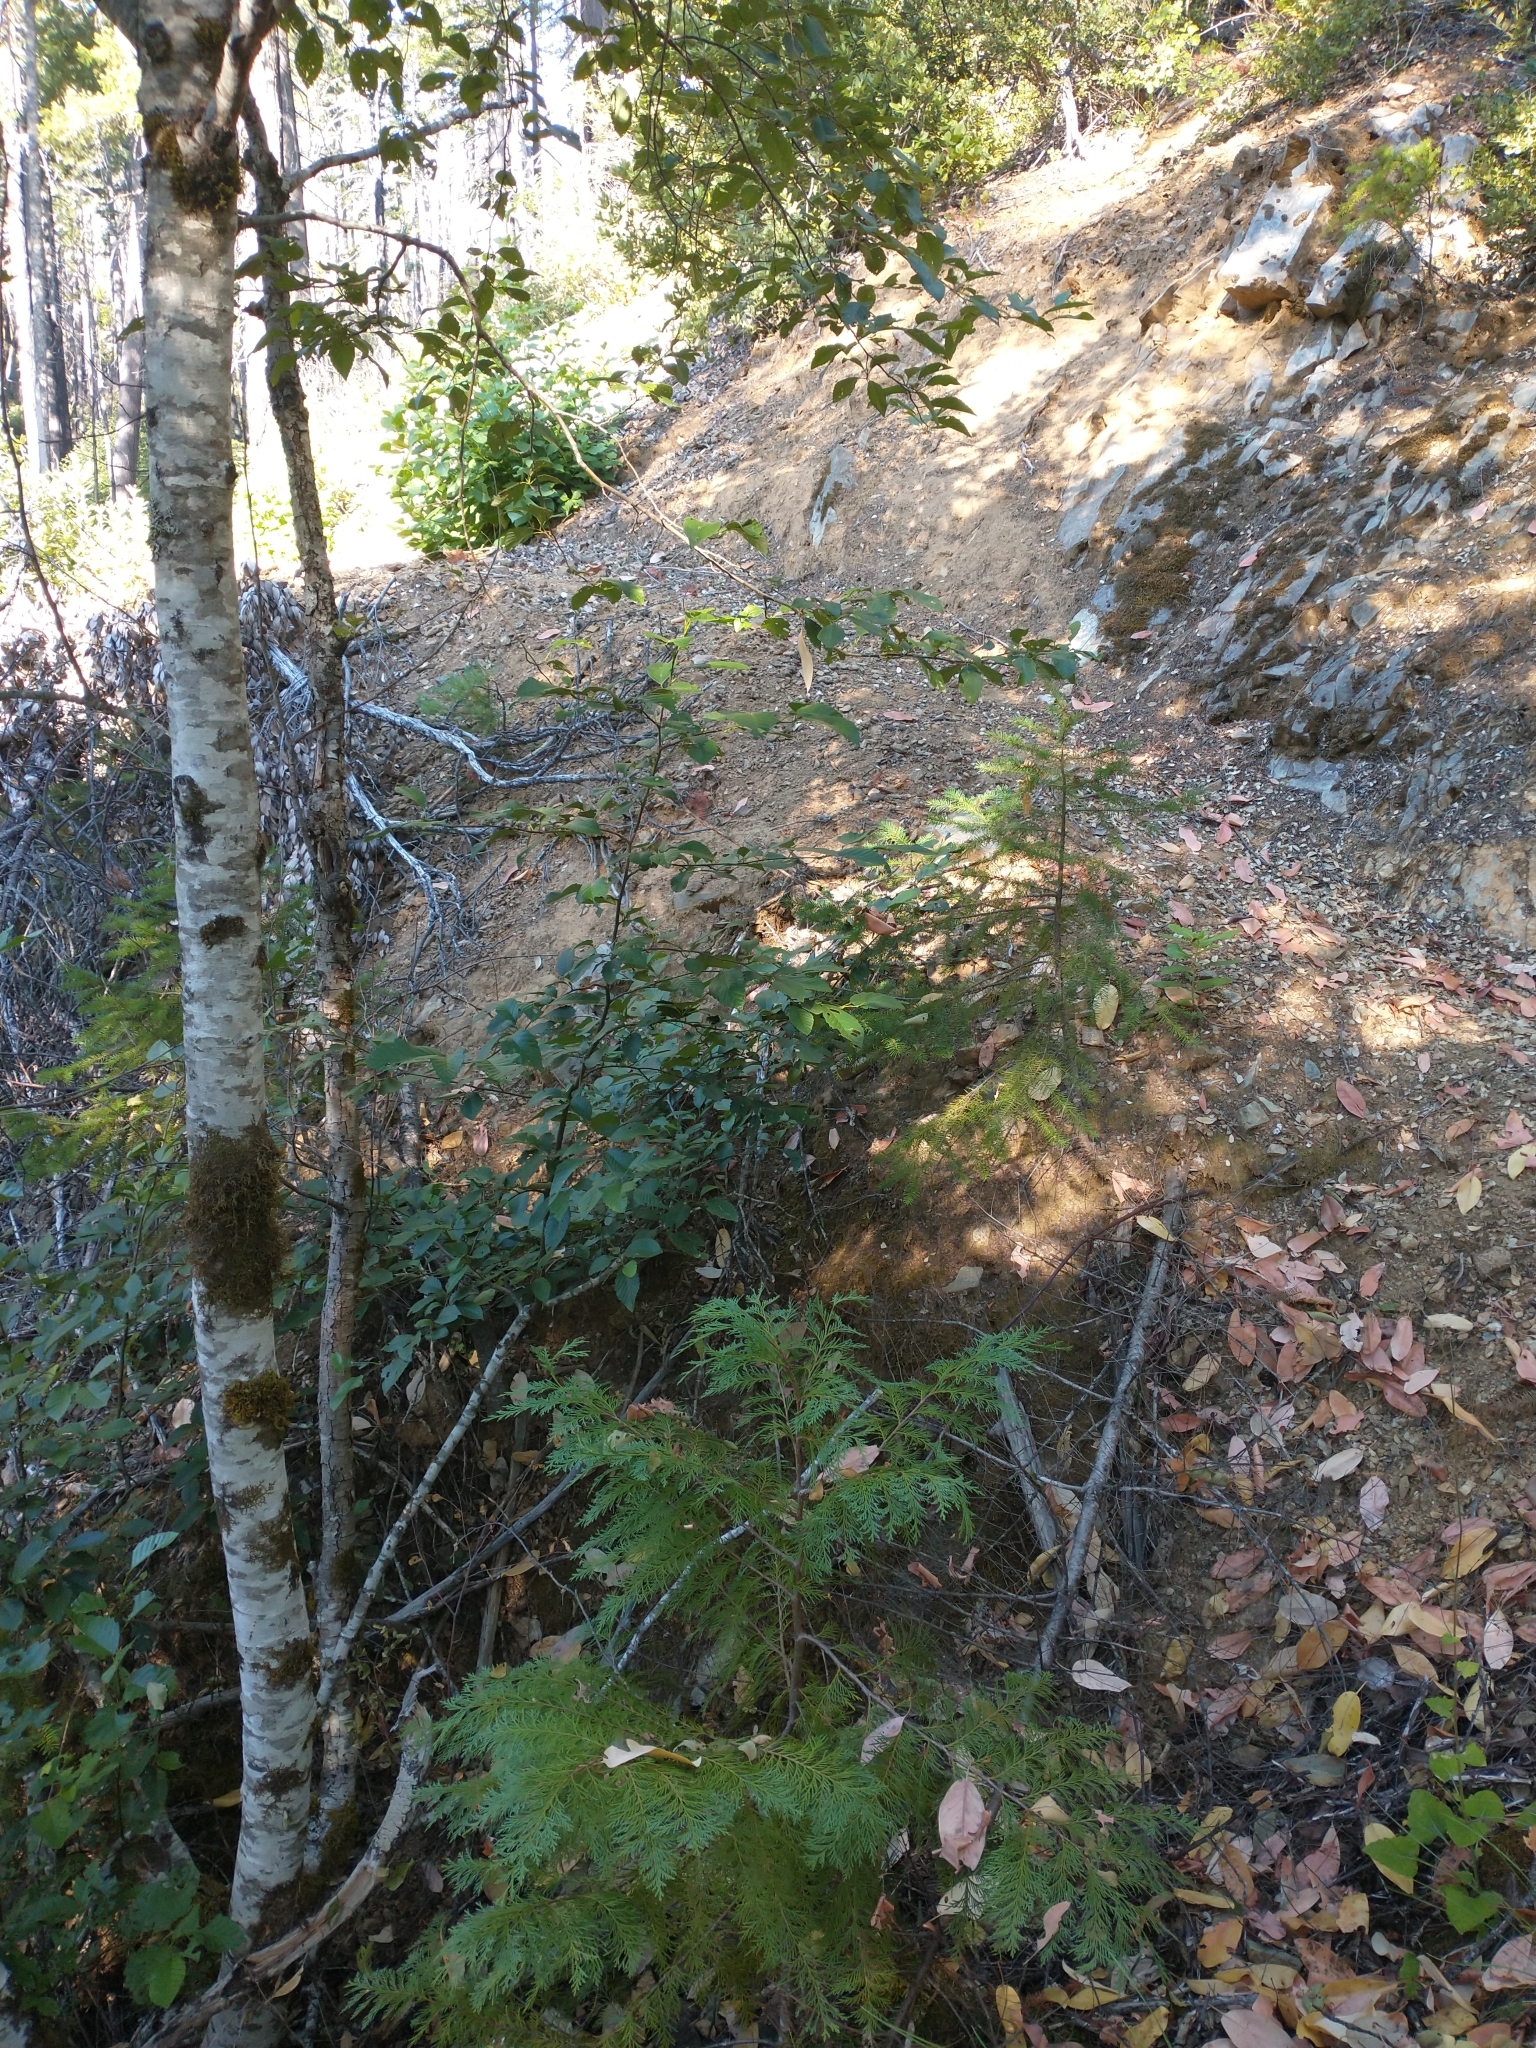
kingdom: Plantae
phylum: Tracheophyta
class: Pinopsida
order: Pinales
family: Cupressaceae
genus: Chamaecyparis
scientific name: Chamaecyparis lawsoniana
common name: Lawson's cypress
